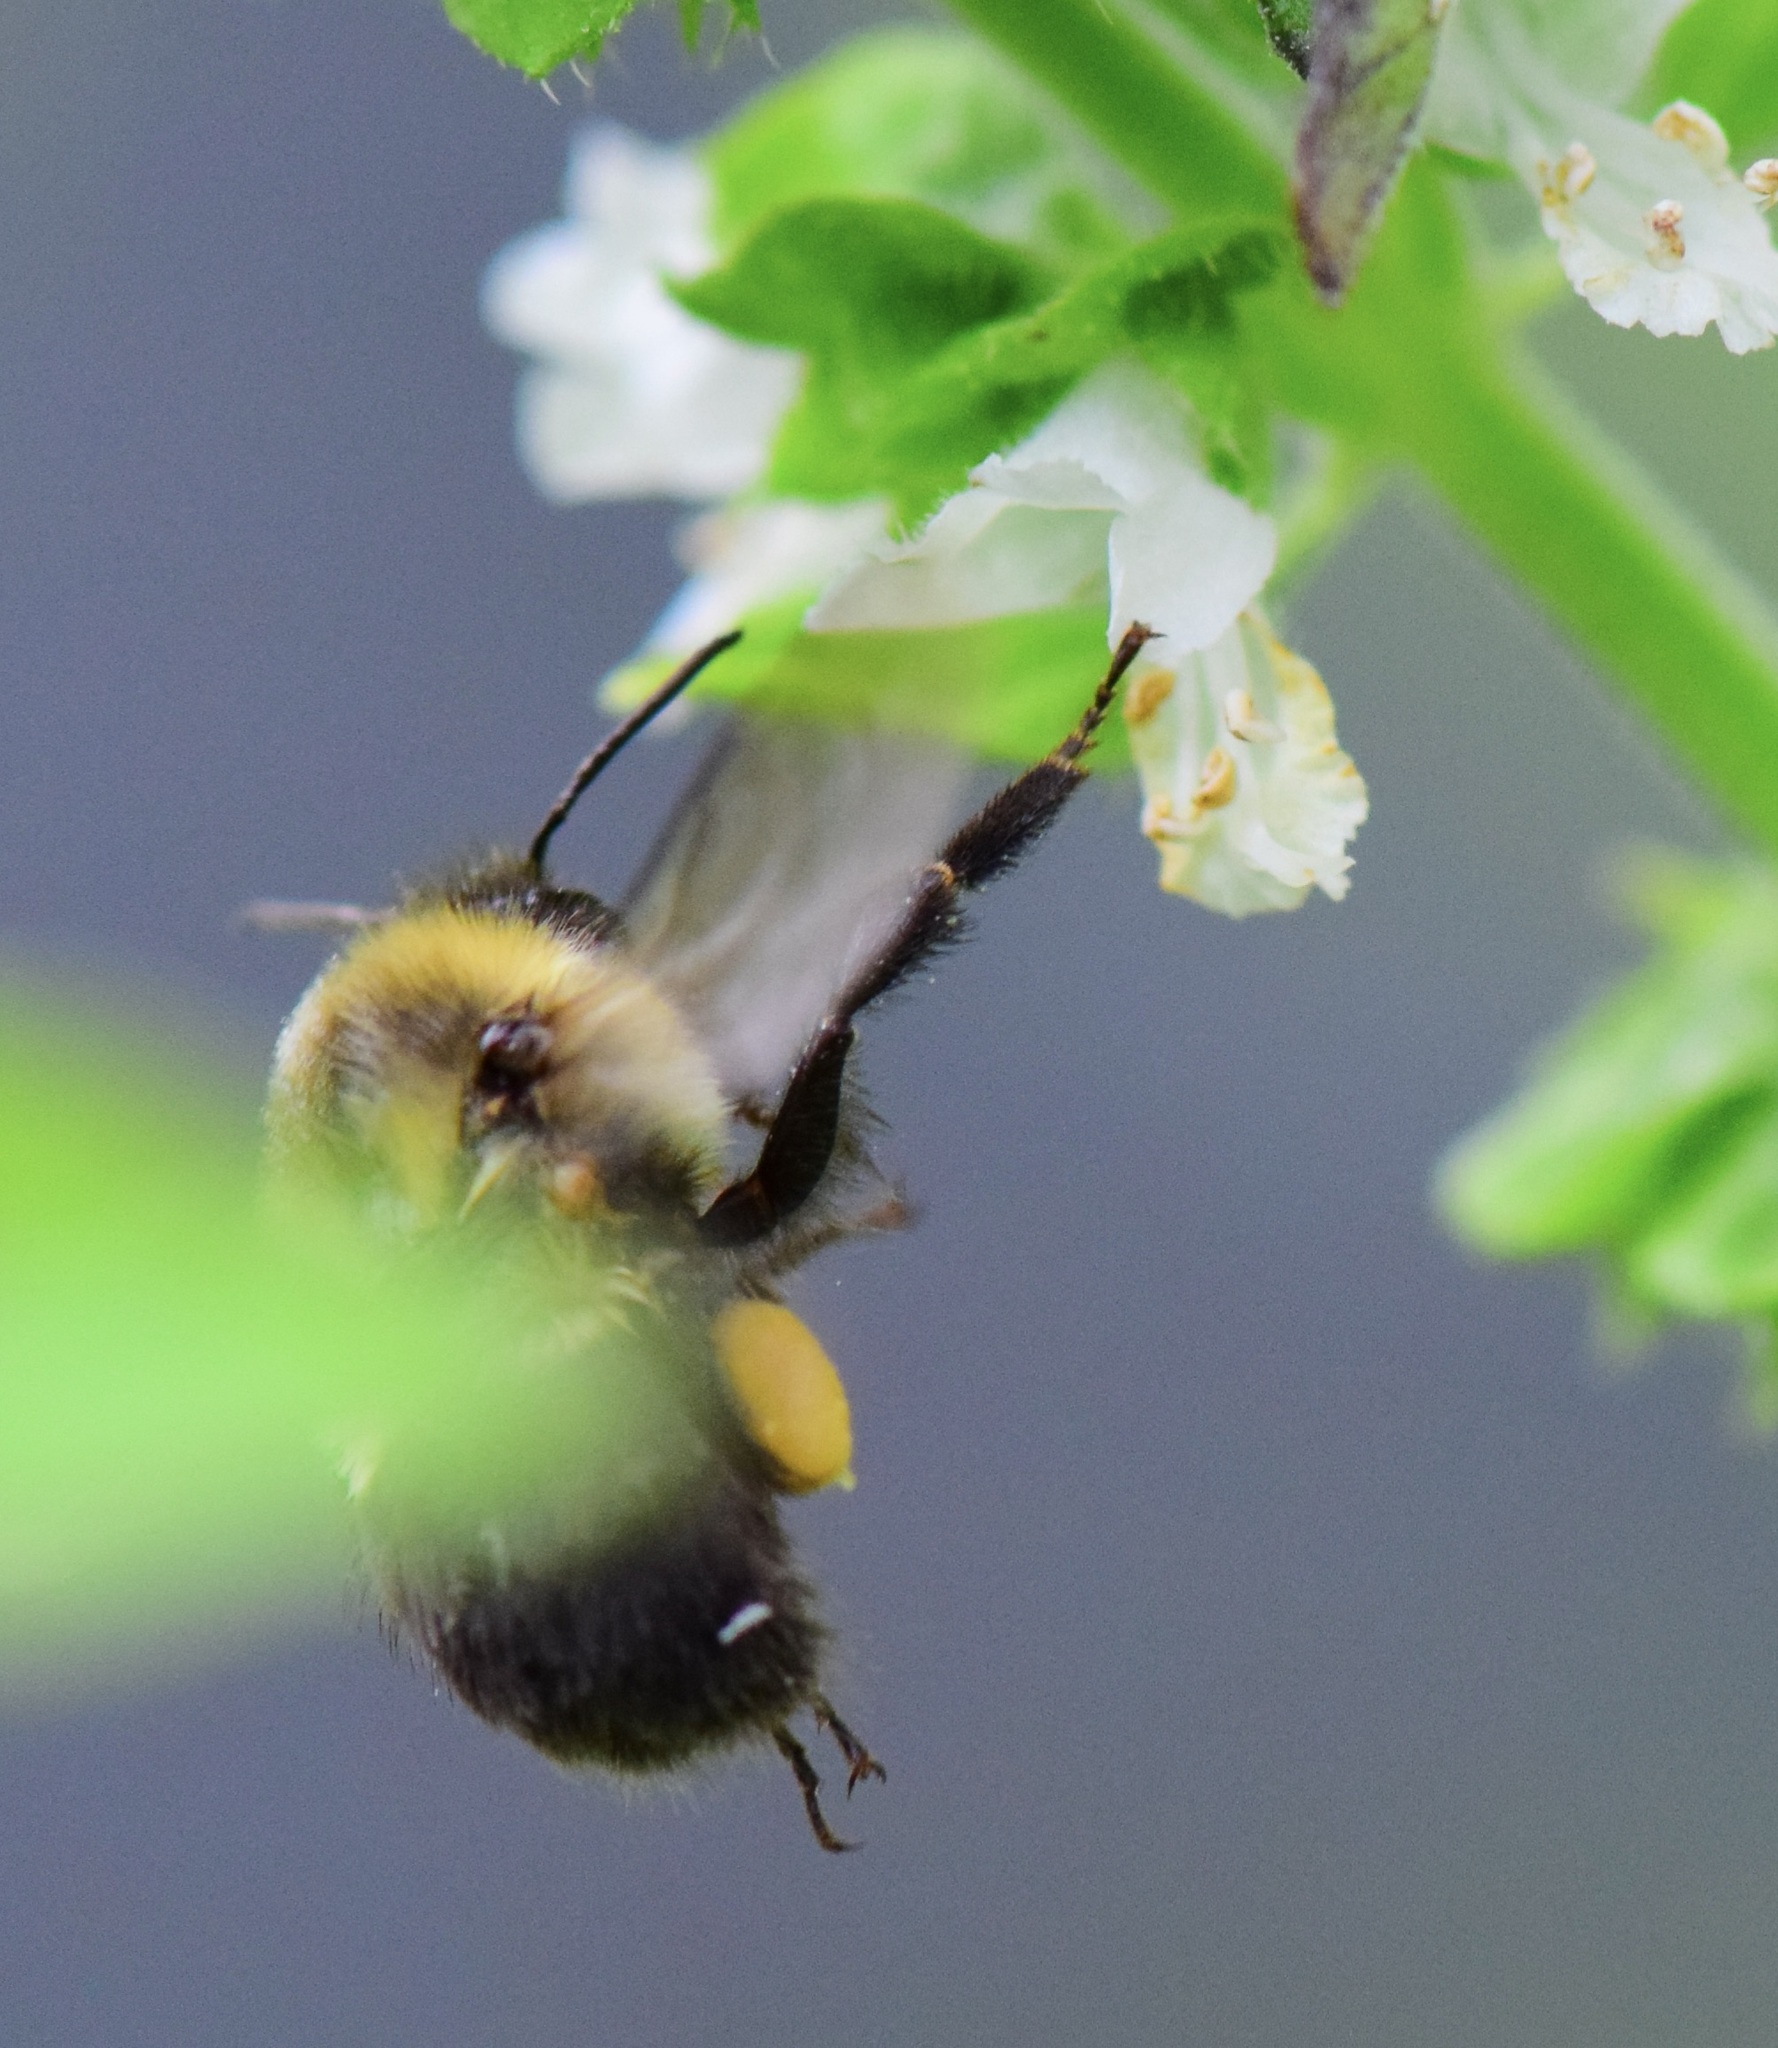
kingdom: Animalia
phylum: Arthropoda
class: Insecta
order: Hymenoptera
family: Apidae
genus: Bombus
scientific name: Bombus impatiens
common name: Common eastern bumble bee
